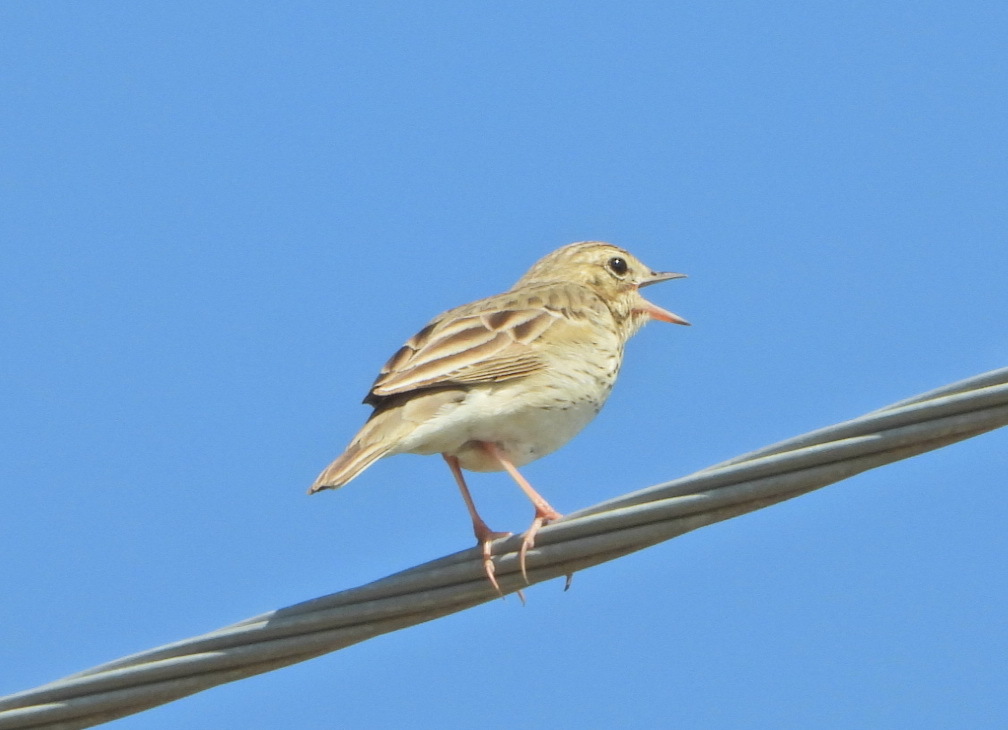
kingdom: Animalia
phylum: Chordata
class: Aves
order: Passeriformes
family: Motacillidae
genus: Anthus
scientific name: Anthus trivialis
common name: Tree pipit
